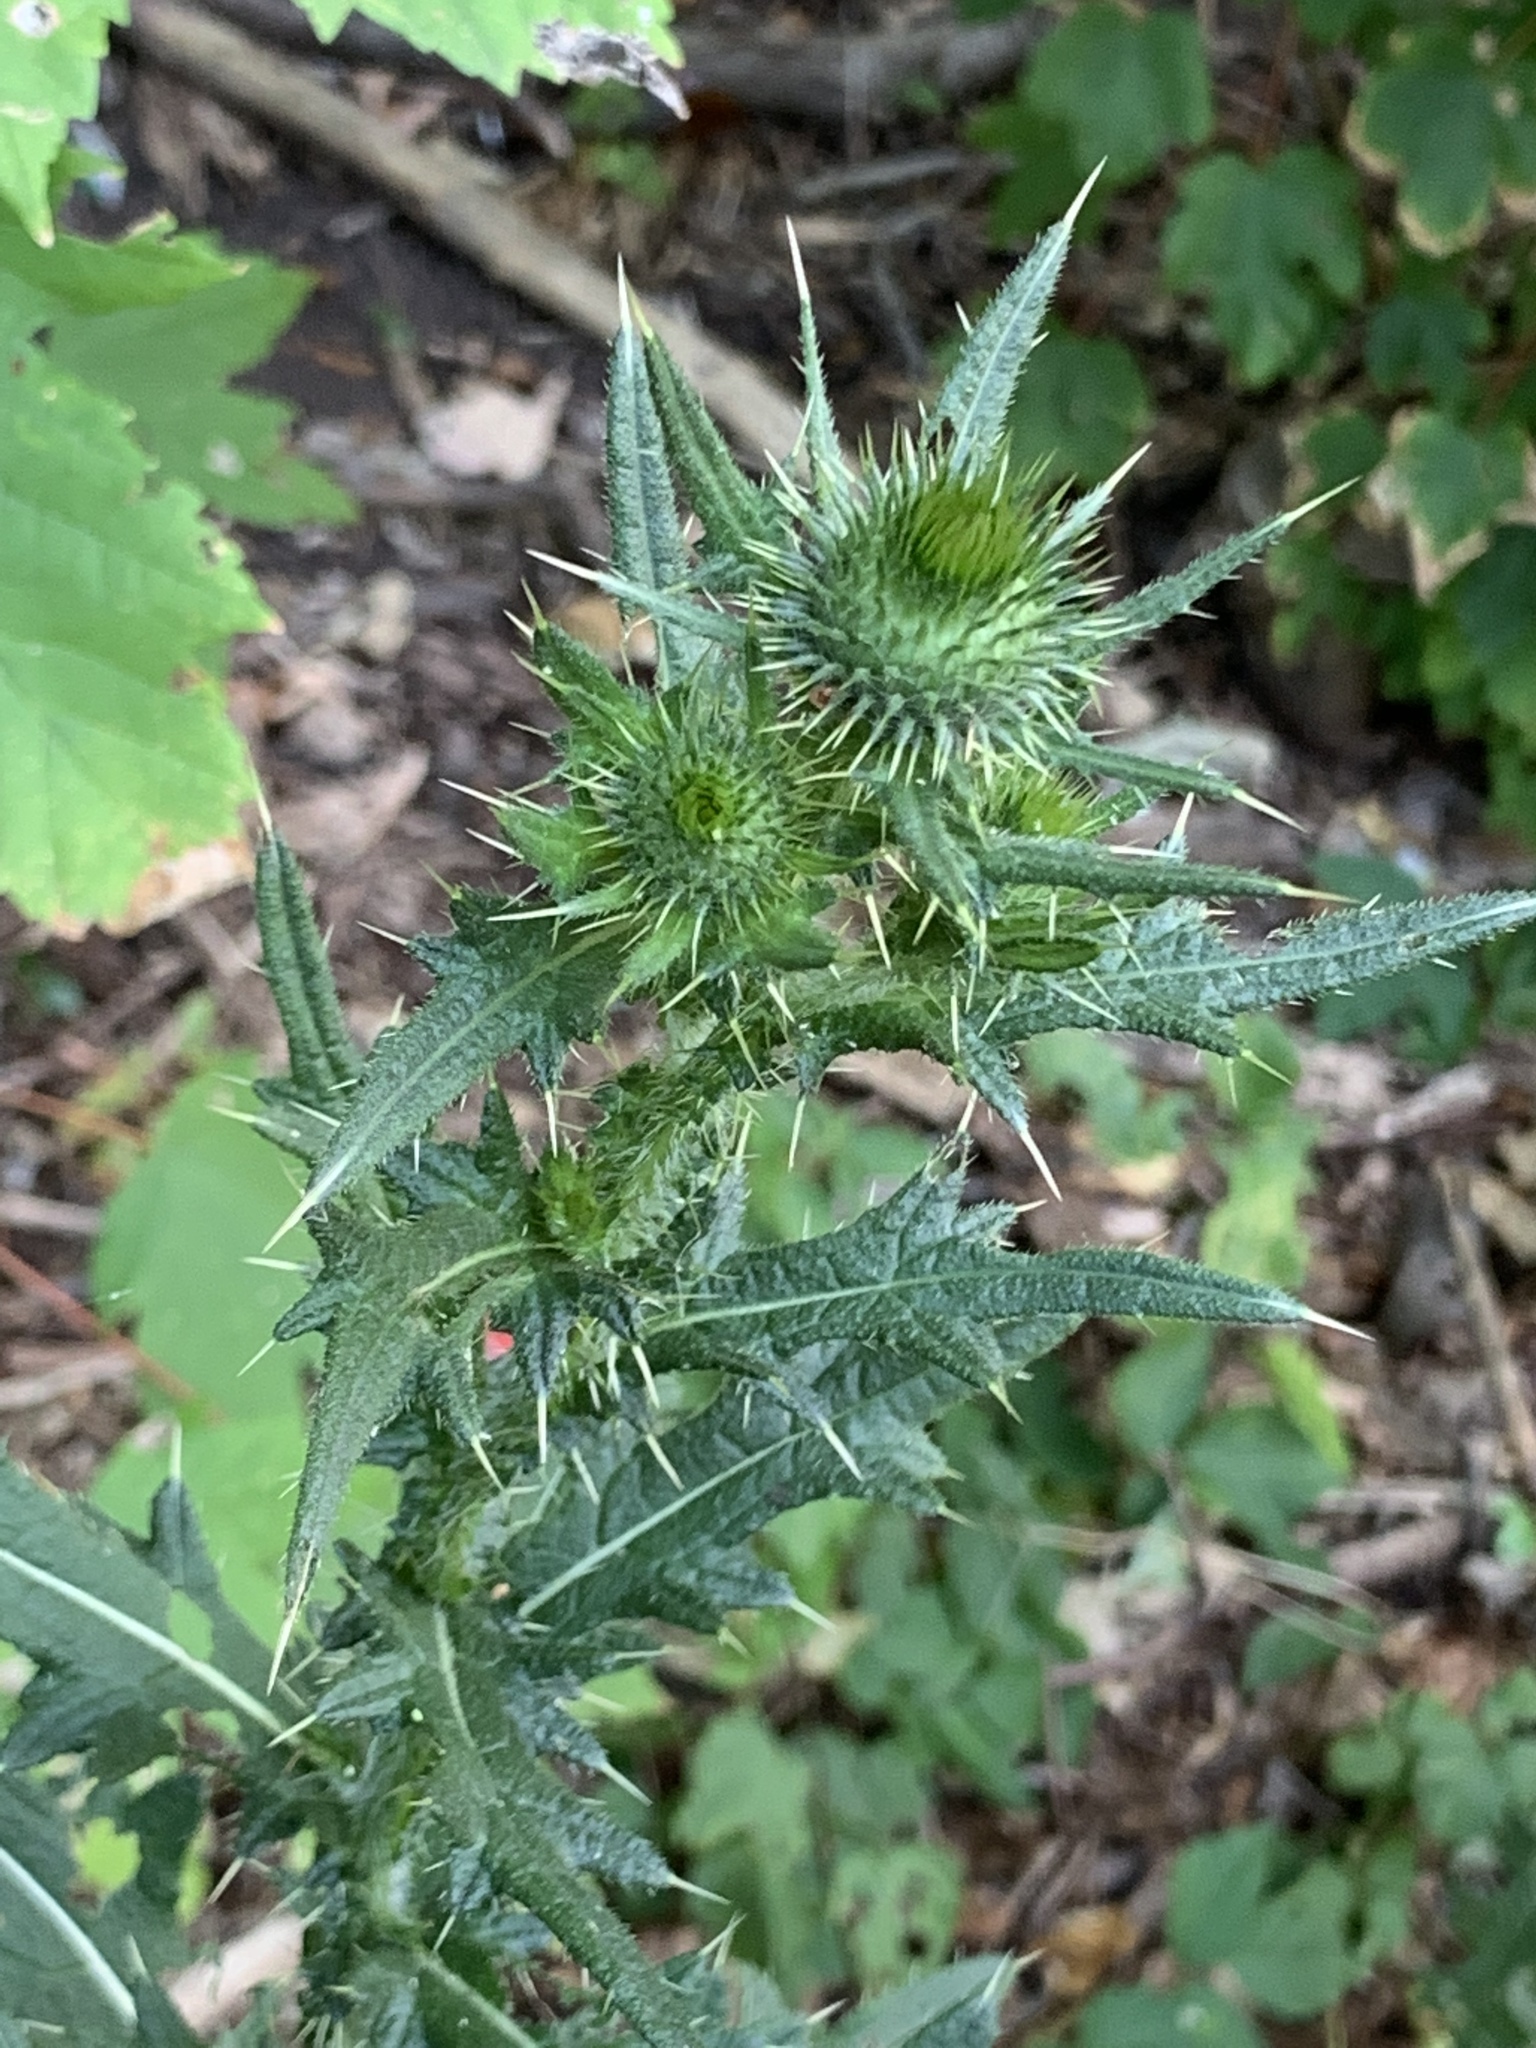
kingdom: Plantae
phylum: Tracheophyta
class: Magnoliopsida
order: Asterales
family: Asteraceae
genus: Cirsium
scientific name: Cirsium vulgare
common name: Bull thistle
